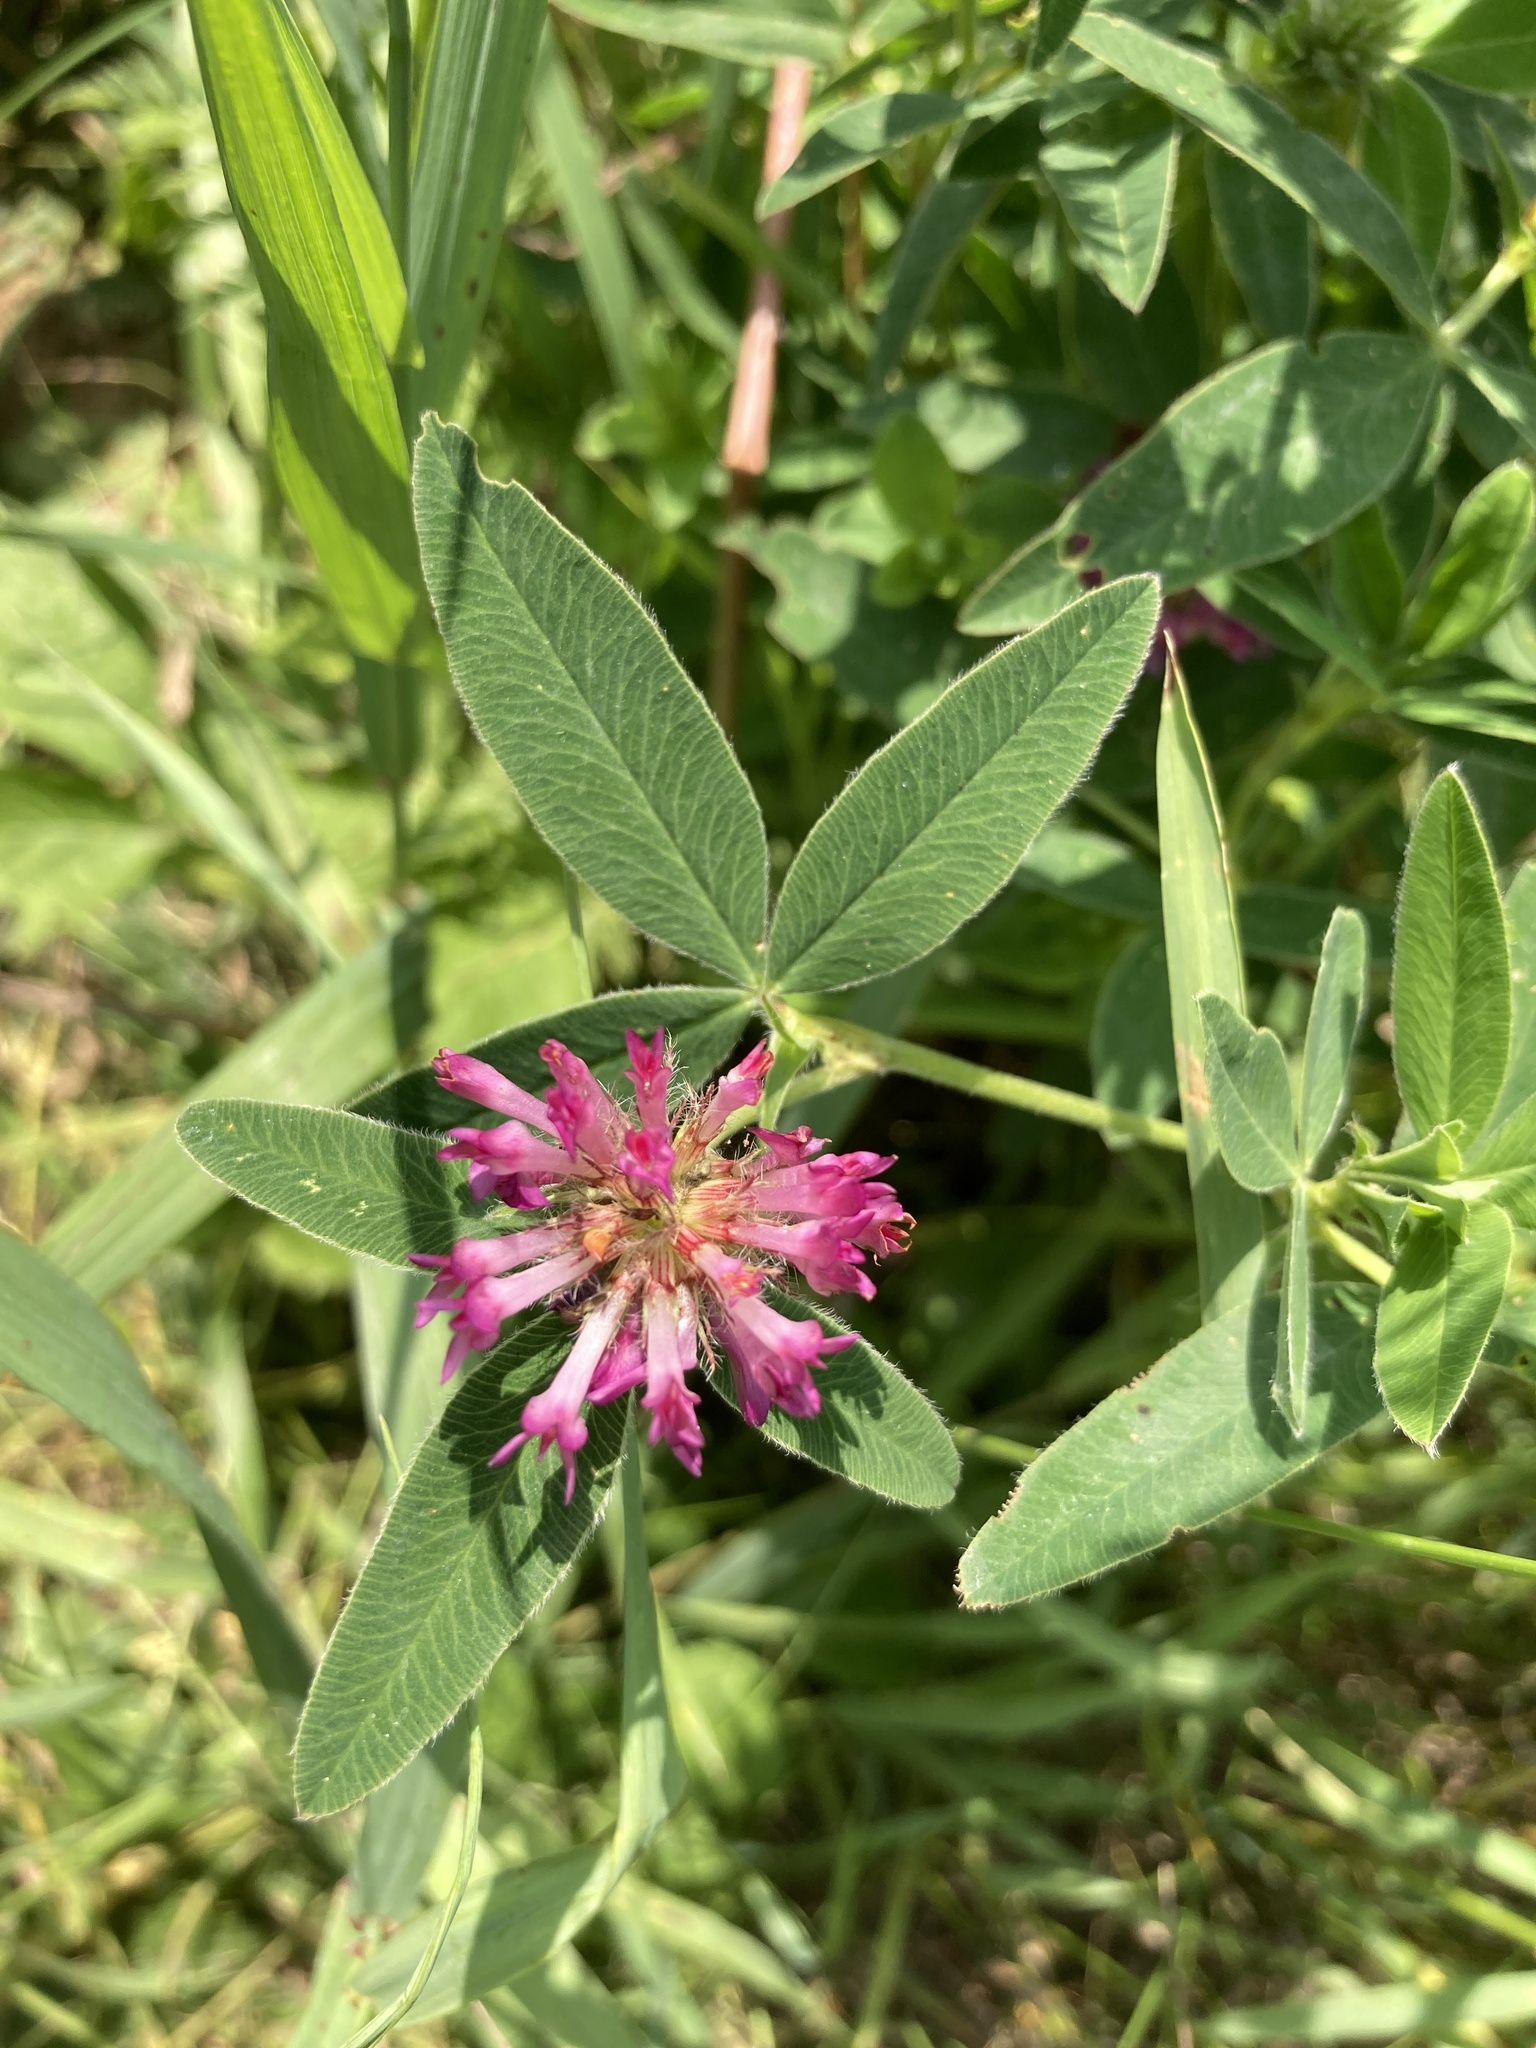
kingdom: Plantae
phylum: Tracheophyta
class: Magnoliopsida
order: Fabales
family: Fabaceae
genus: Trifolium
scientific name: Trifolium medium
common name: Zigzag clover
